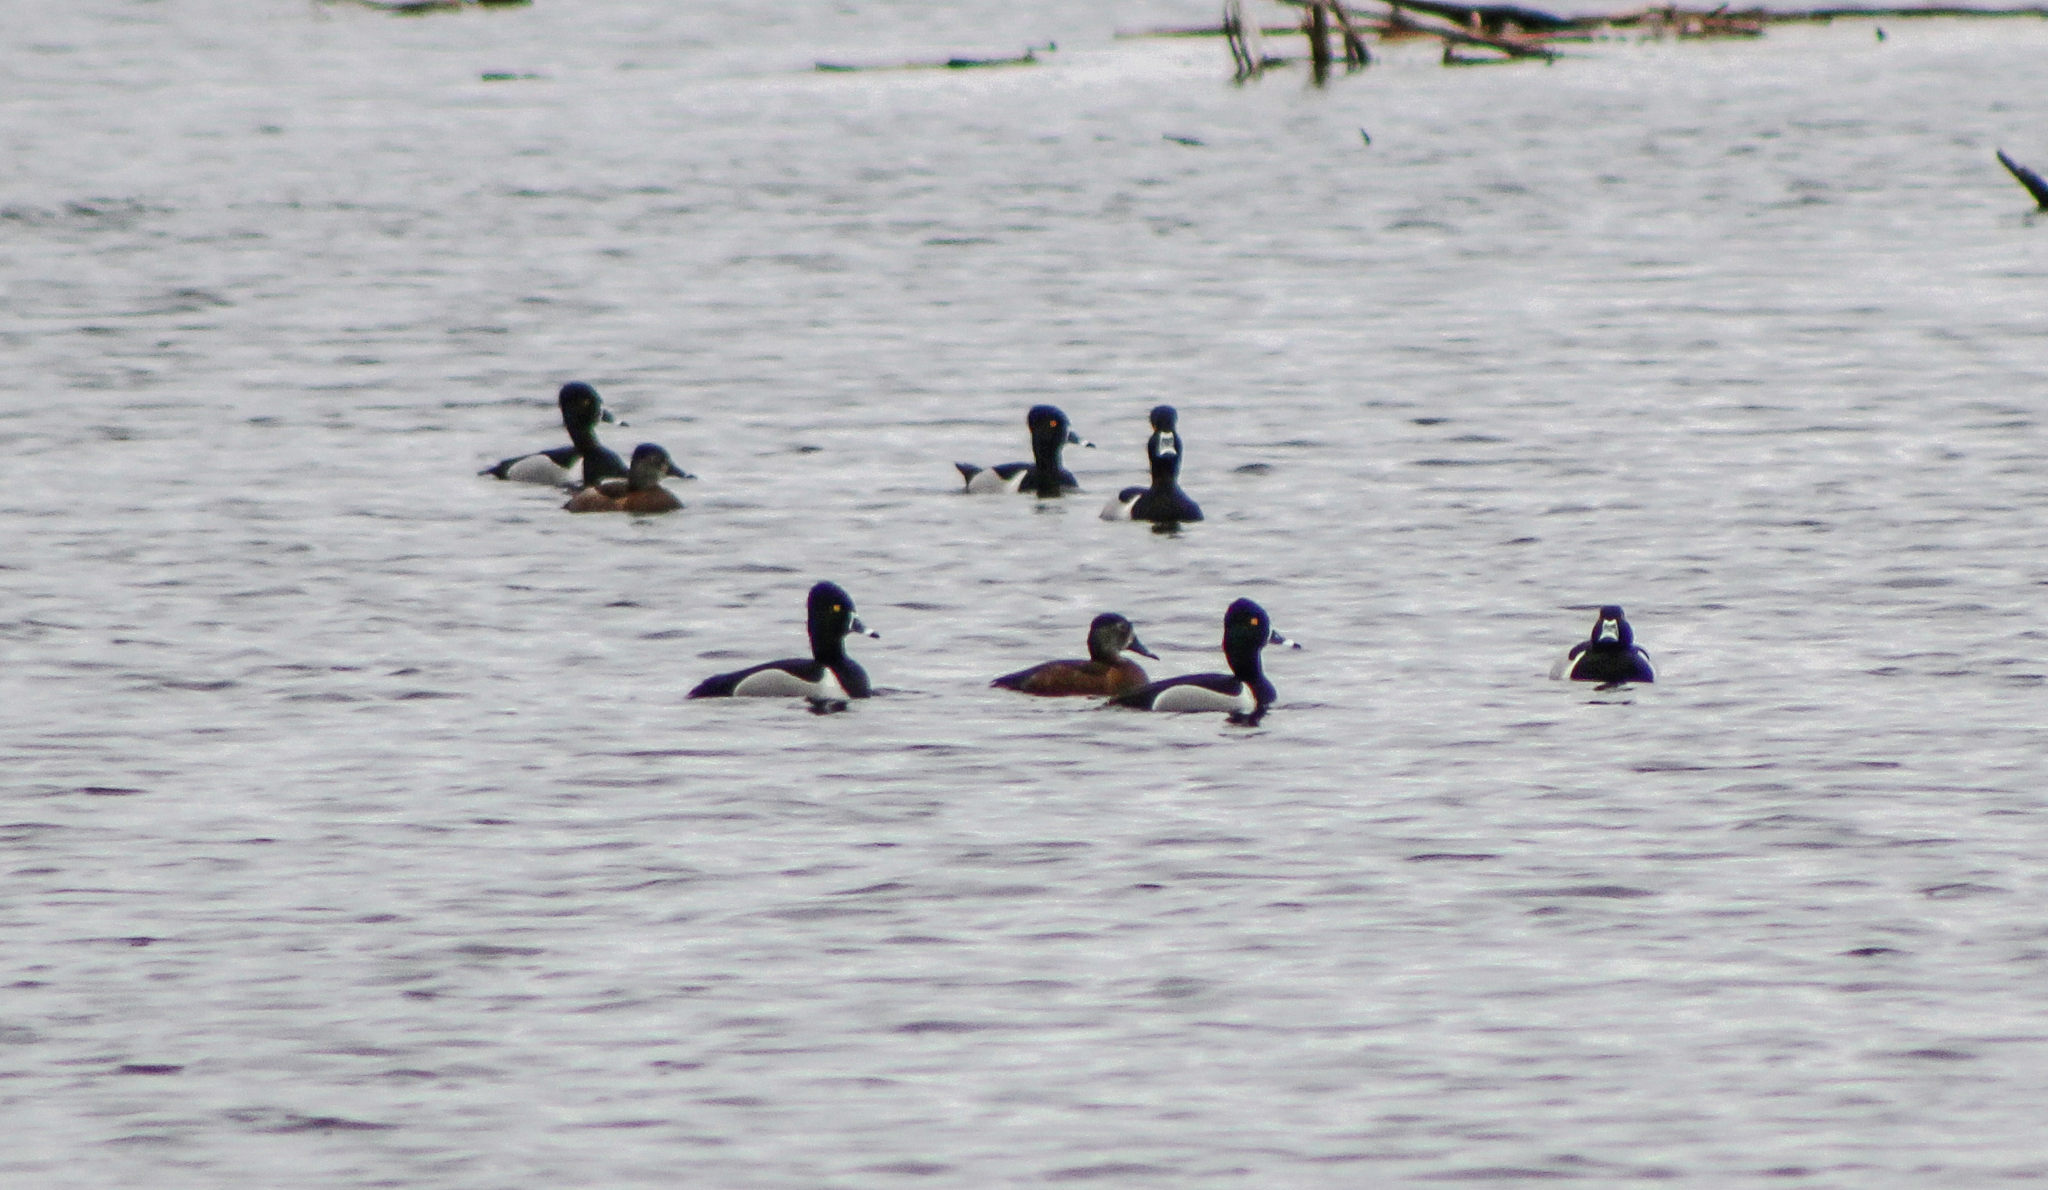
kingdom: Animalia
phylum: Chordata
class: Aves
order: Anseriformes
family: Anatidae
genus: Aythya
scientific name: Aythya collaris
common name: Ring-necked duck
